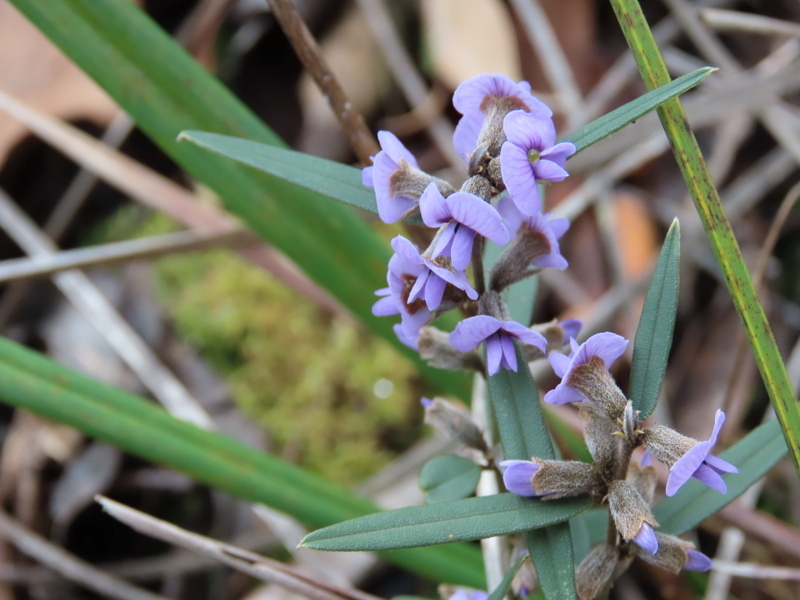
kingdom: Plantae
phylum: Tracheophyta
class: Magnoliopsida
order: Fabales
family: Fabaceae
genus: Hovea
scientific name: Hovea heterophylla
